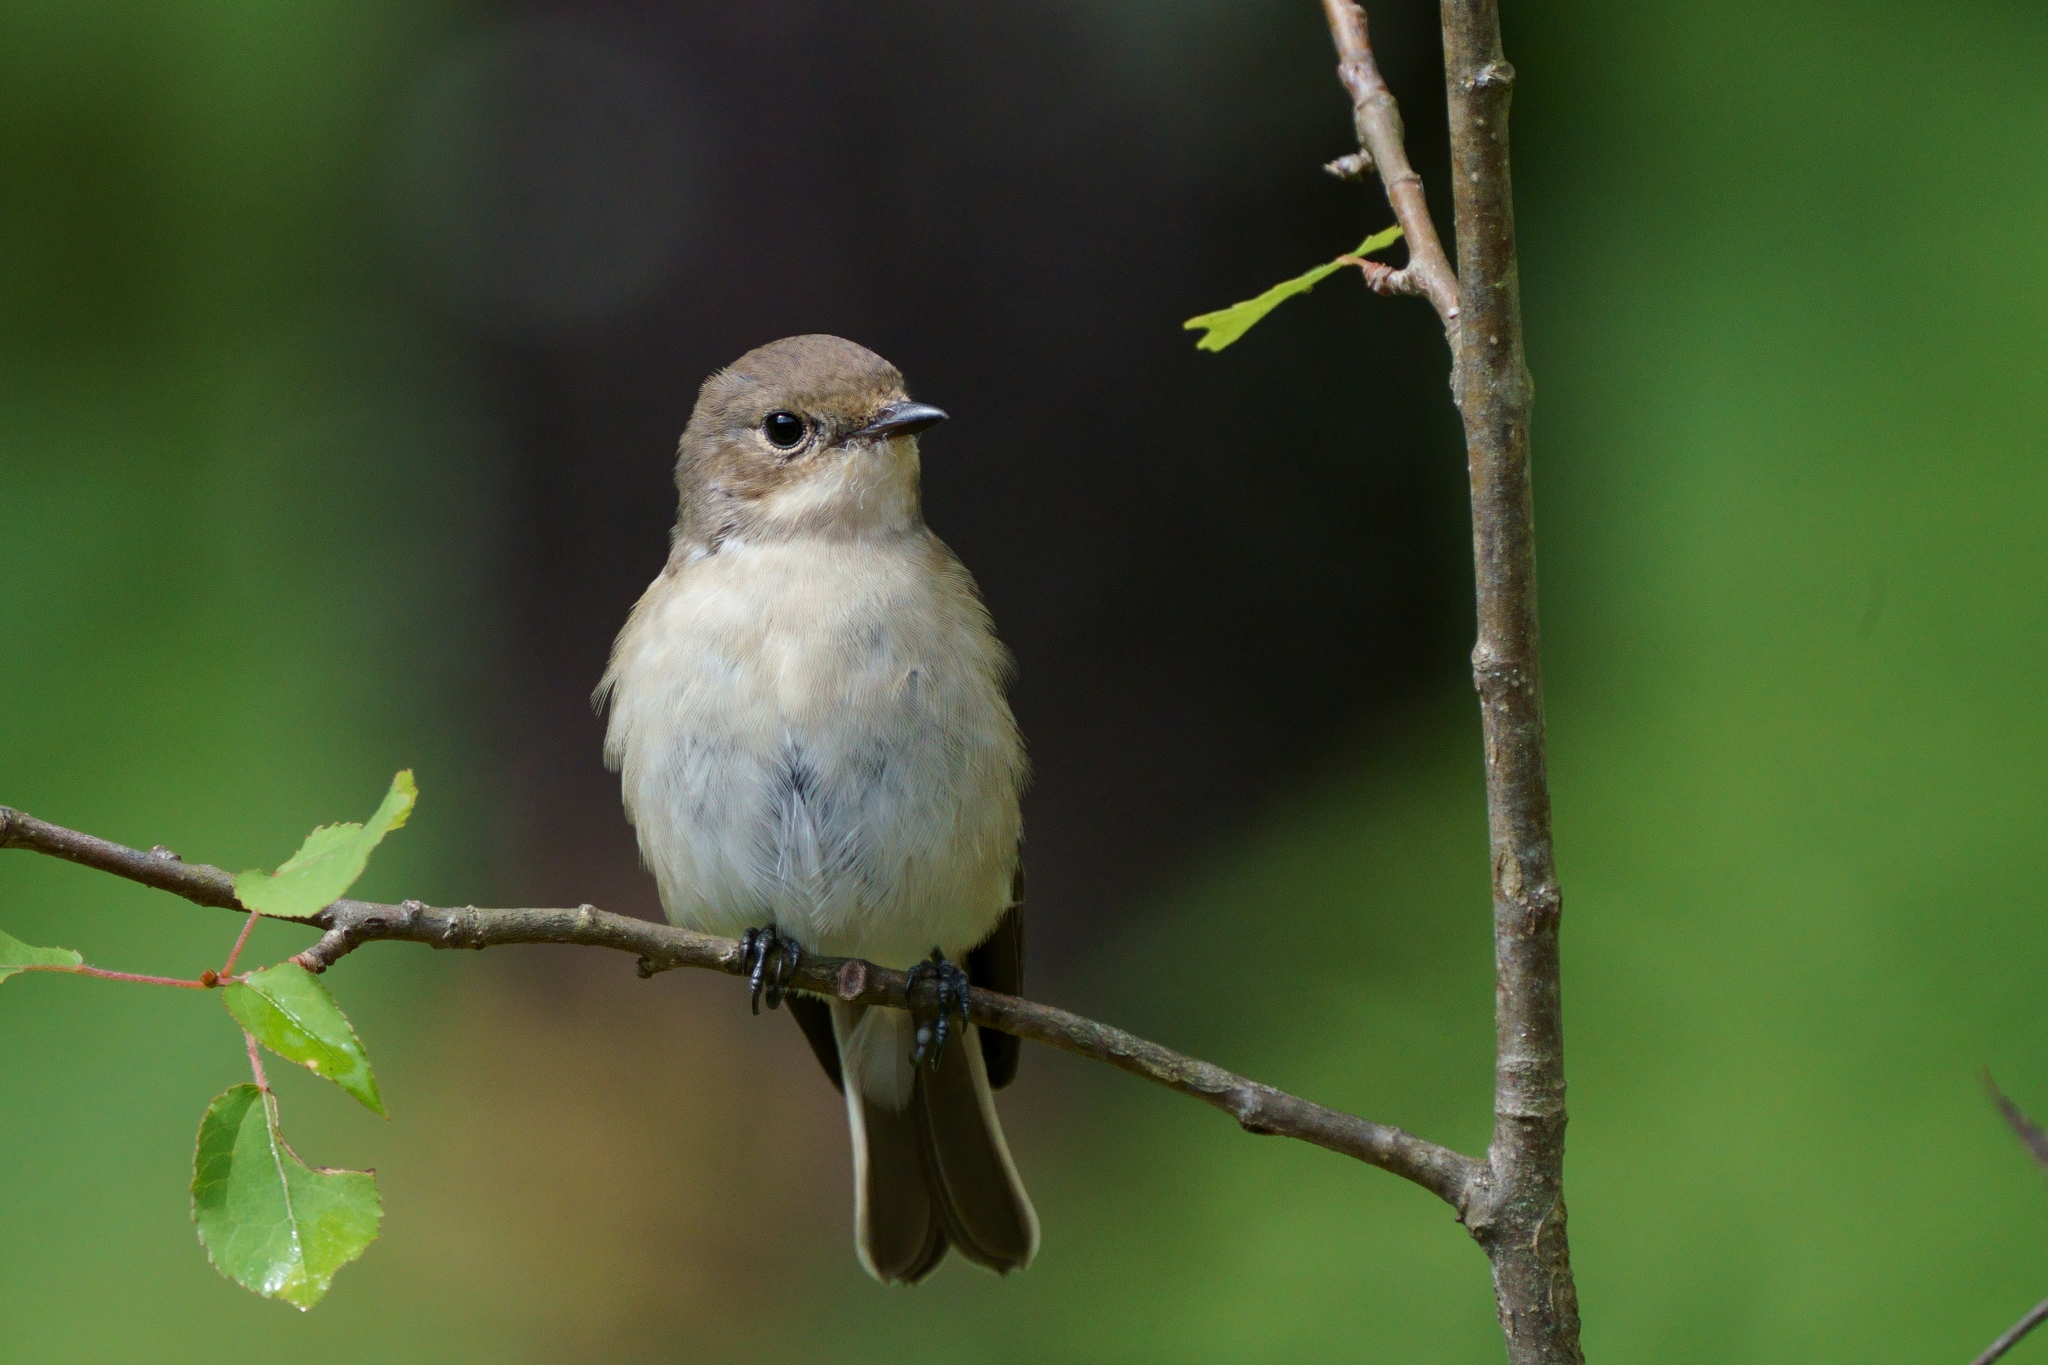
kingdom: Animalia
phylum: Chordata
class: Aves
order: Passeriformes
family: Muscicapidae
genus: Ficedula
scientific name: Ficedula hypoleuca
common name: European pied flycatcher
